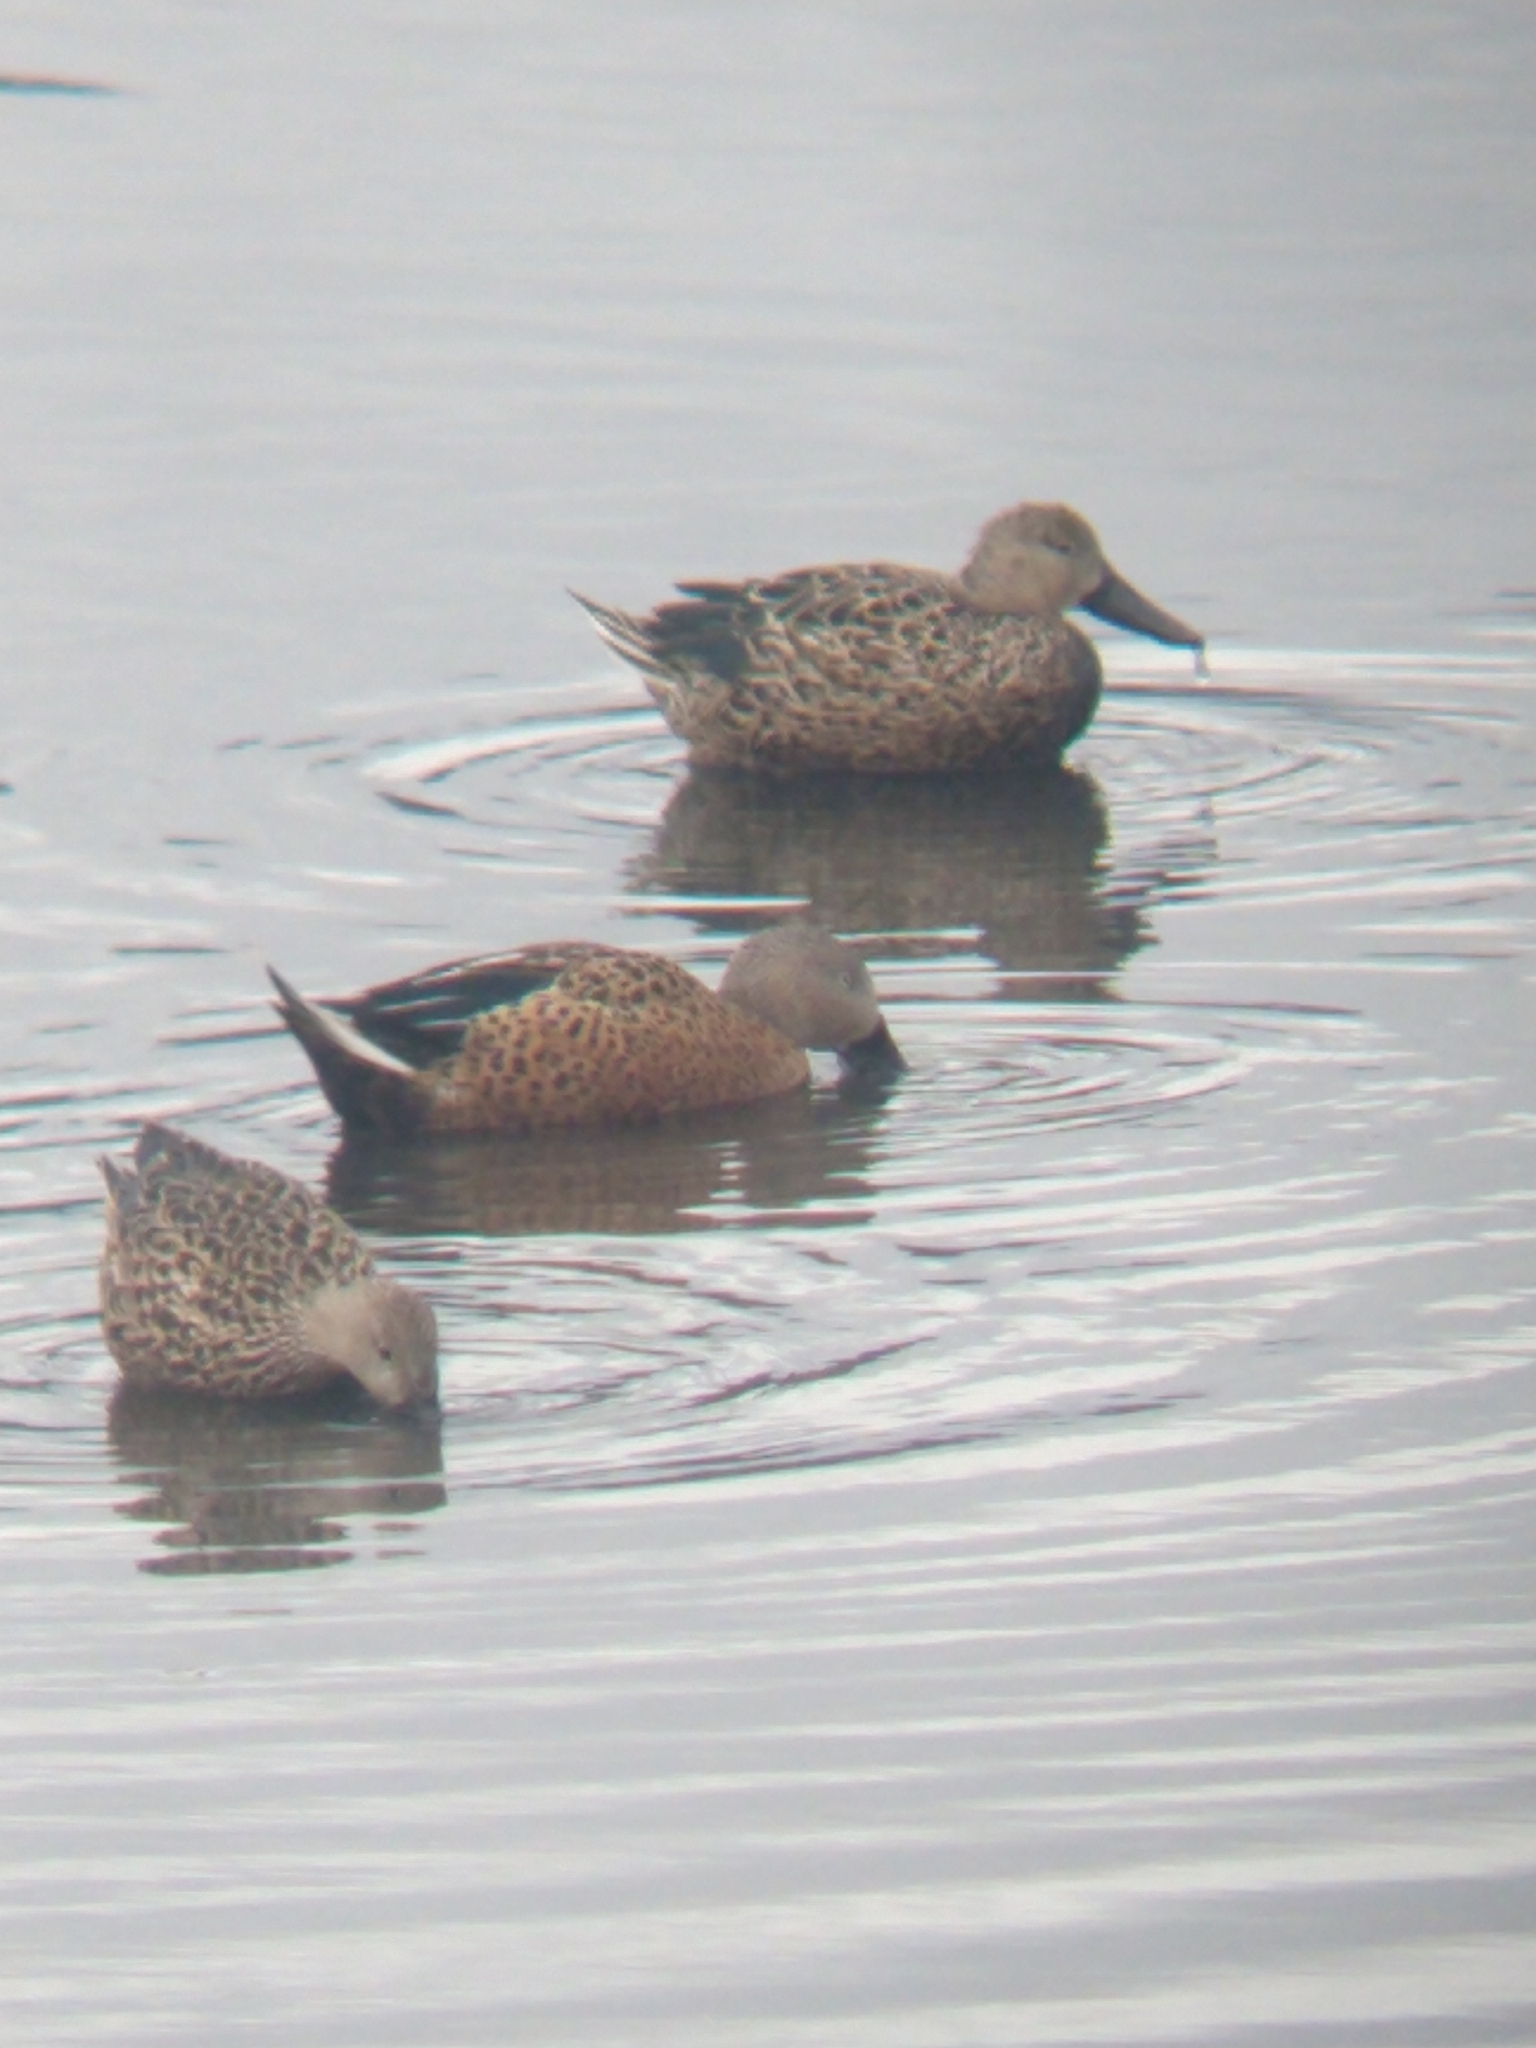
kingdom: Animalia
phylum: Chordata
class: Aves
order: Anseriformes
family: Anatidae
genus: Spatula
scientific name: Spatula platalea
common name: Red shoveler
